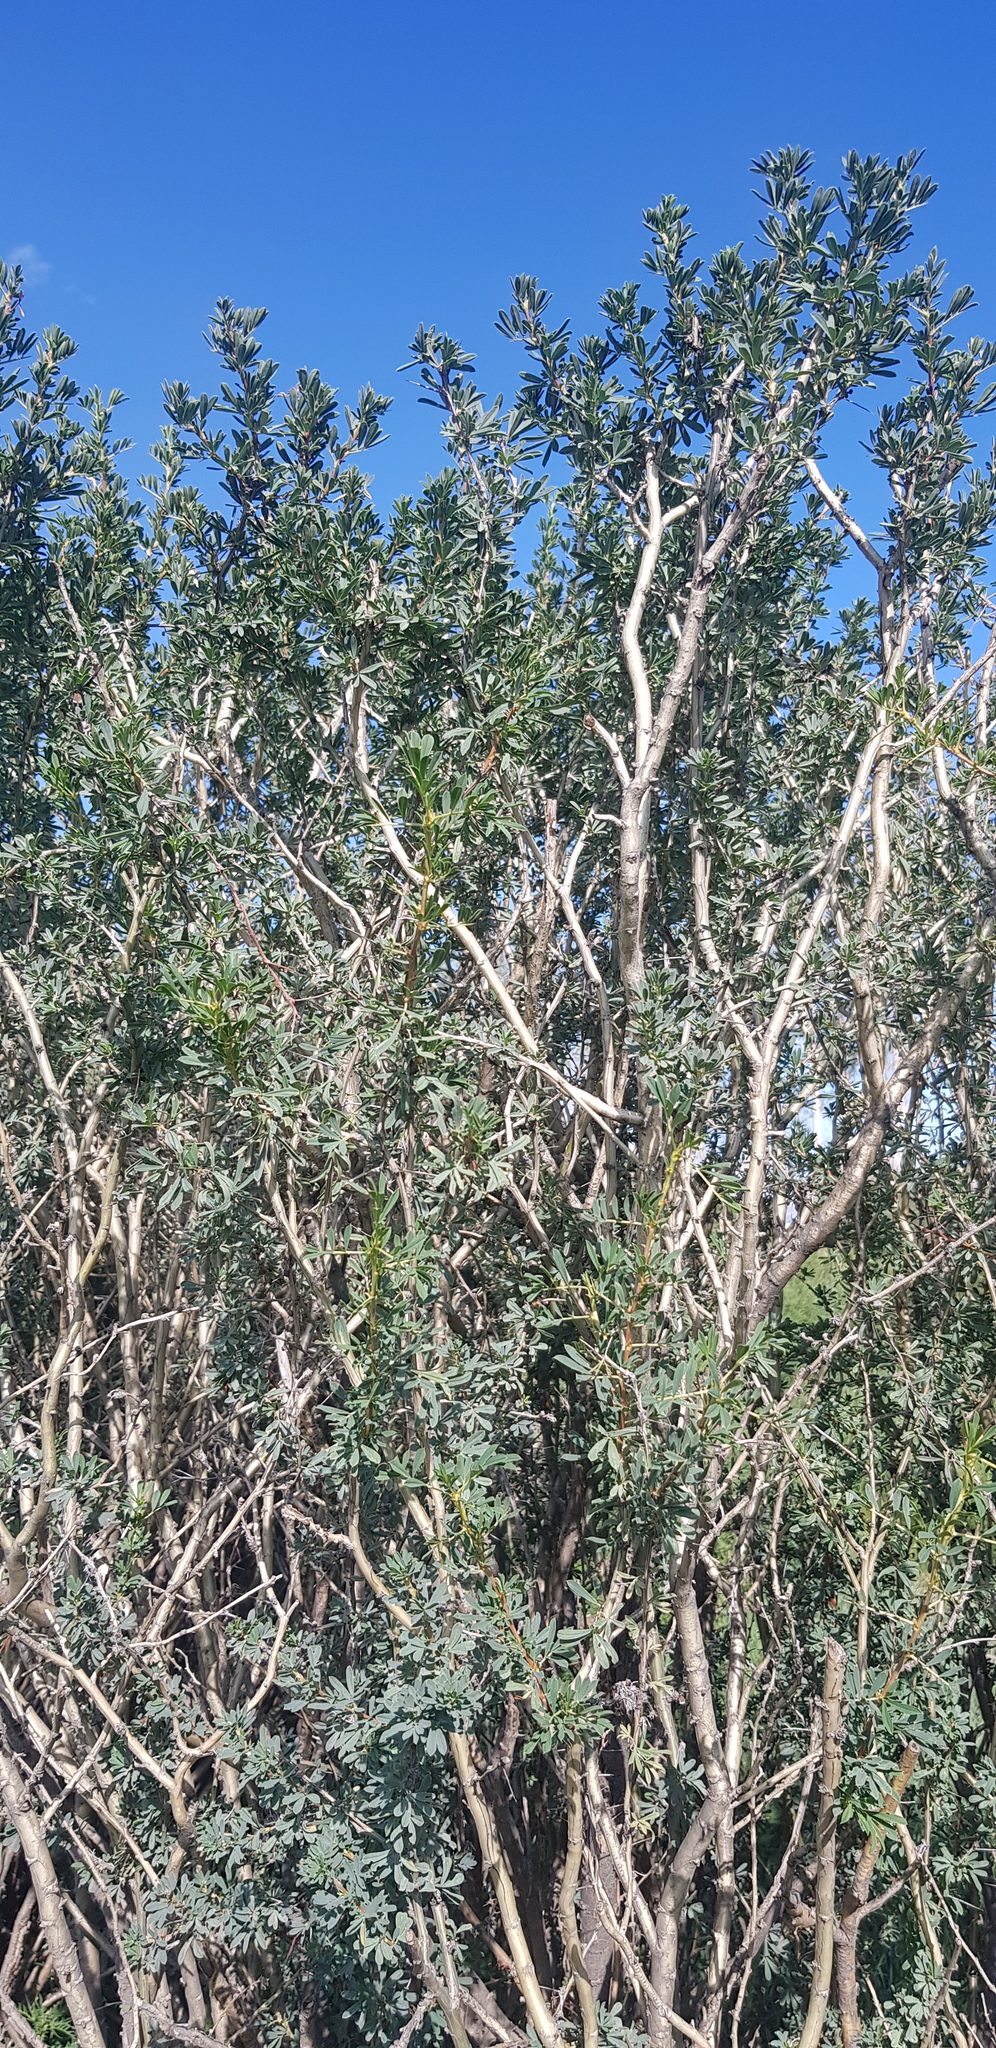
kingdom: Plantae
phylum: Tracheophyta
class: Magnoliopsida
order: Fabales
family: Fabaceae
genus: Caragana
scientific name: Caragana arborescens
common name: Siberian peashrub
